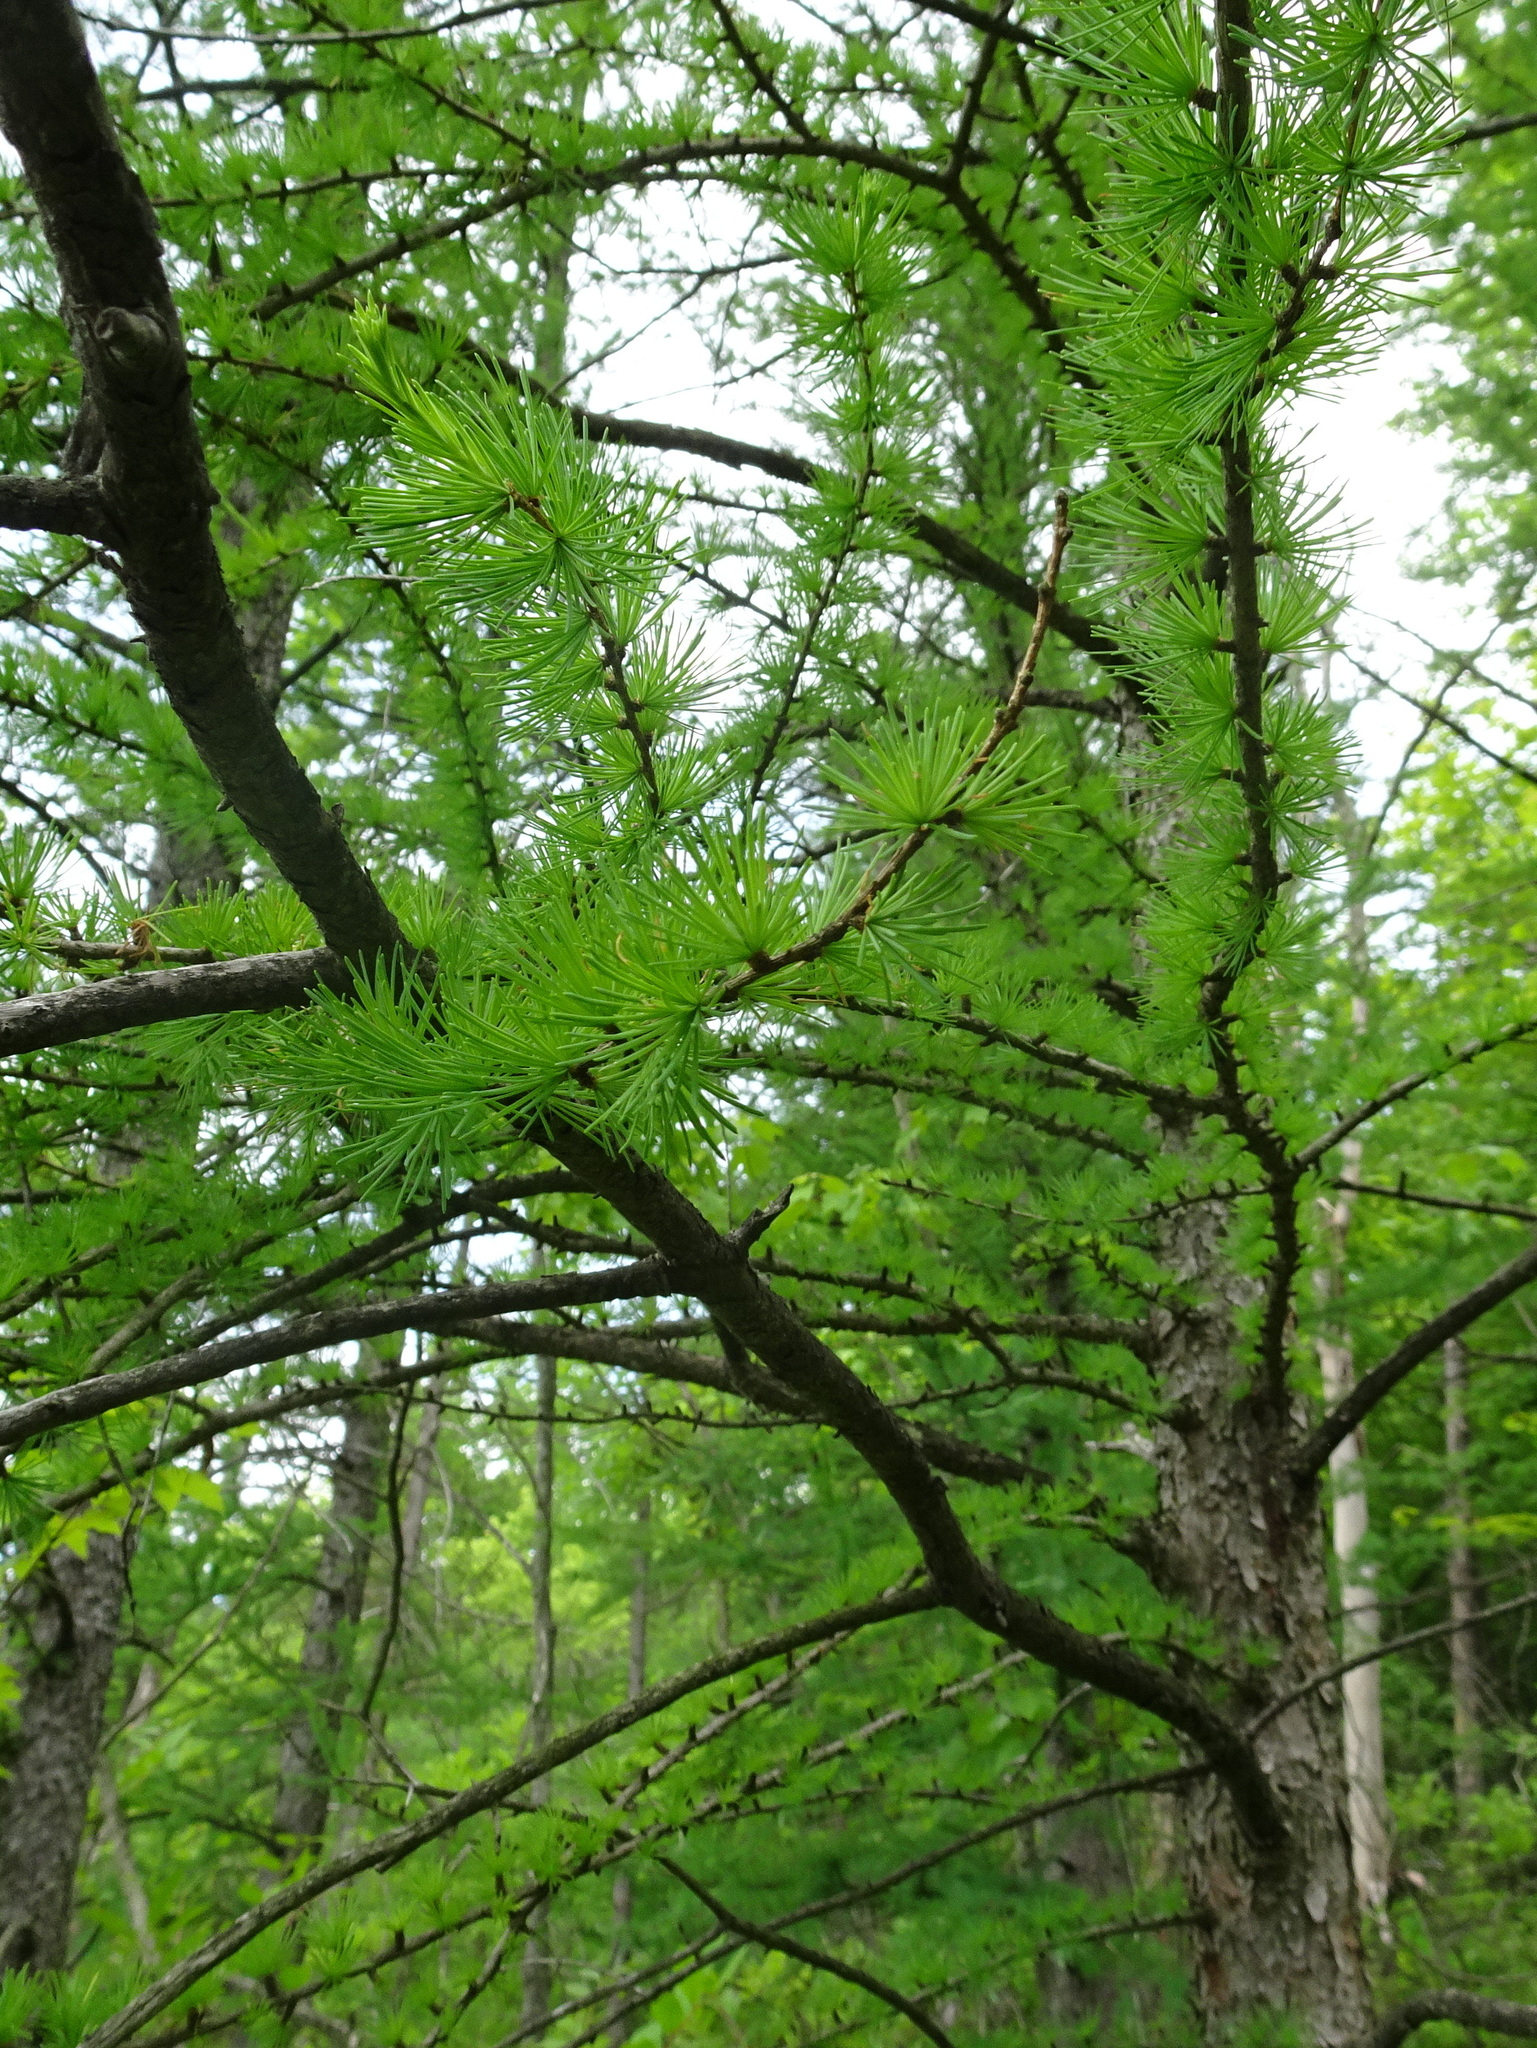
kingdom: Plantae
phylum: Tracheophyta
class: Pinopsida
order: Pinales
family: Pinaceae
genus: Larix
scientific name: Larix laricina
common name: American larch
